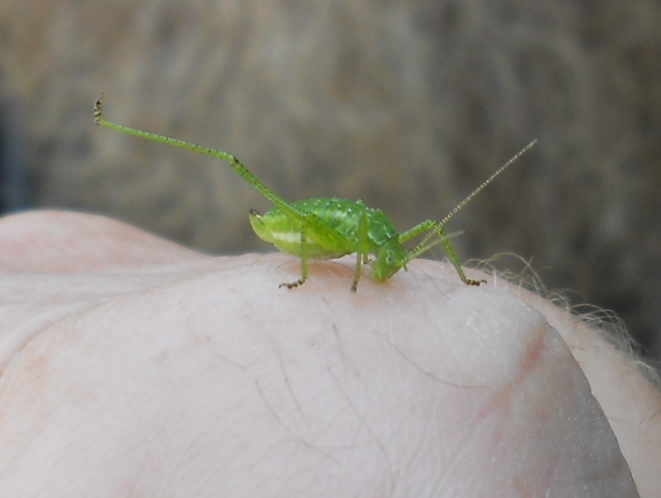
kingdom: Animalia
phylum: Arthropoda
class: Insecta
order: Orthoptera
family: Tettigoniidae
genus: Leptophyes
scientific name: Leptophyes albovittata
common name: Striped bush-cricket
